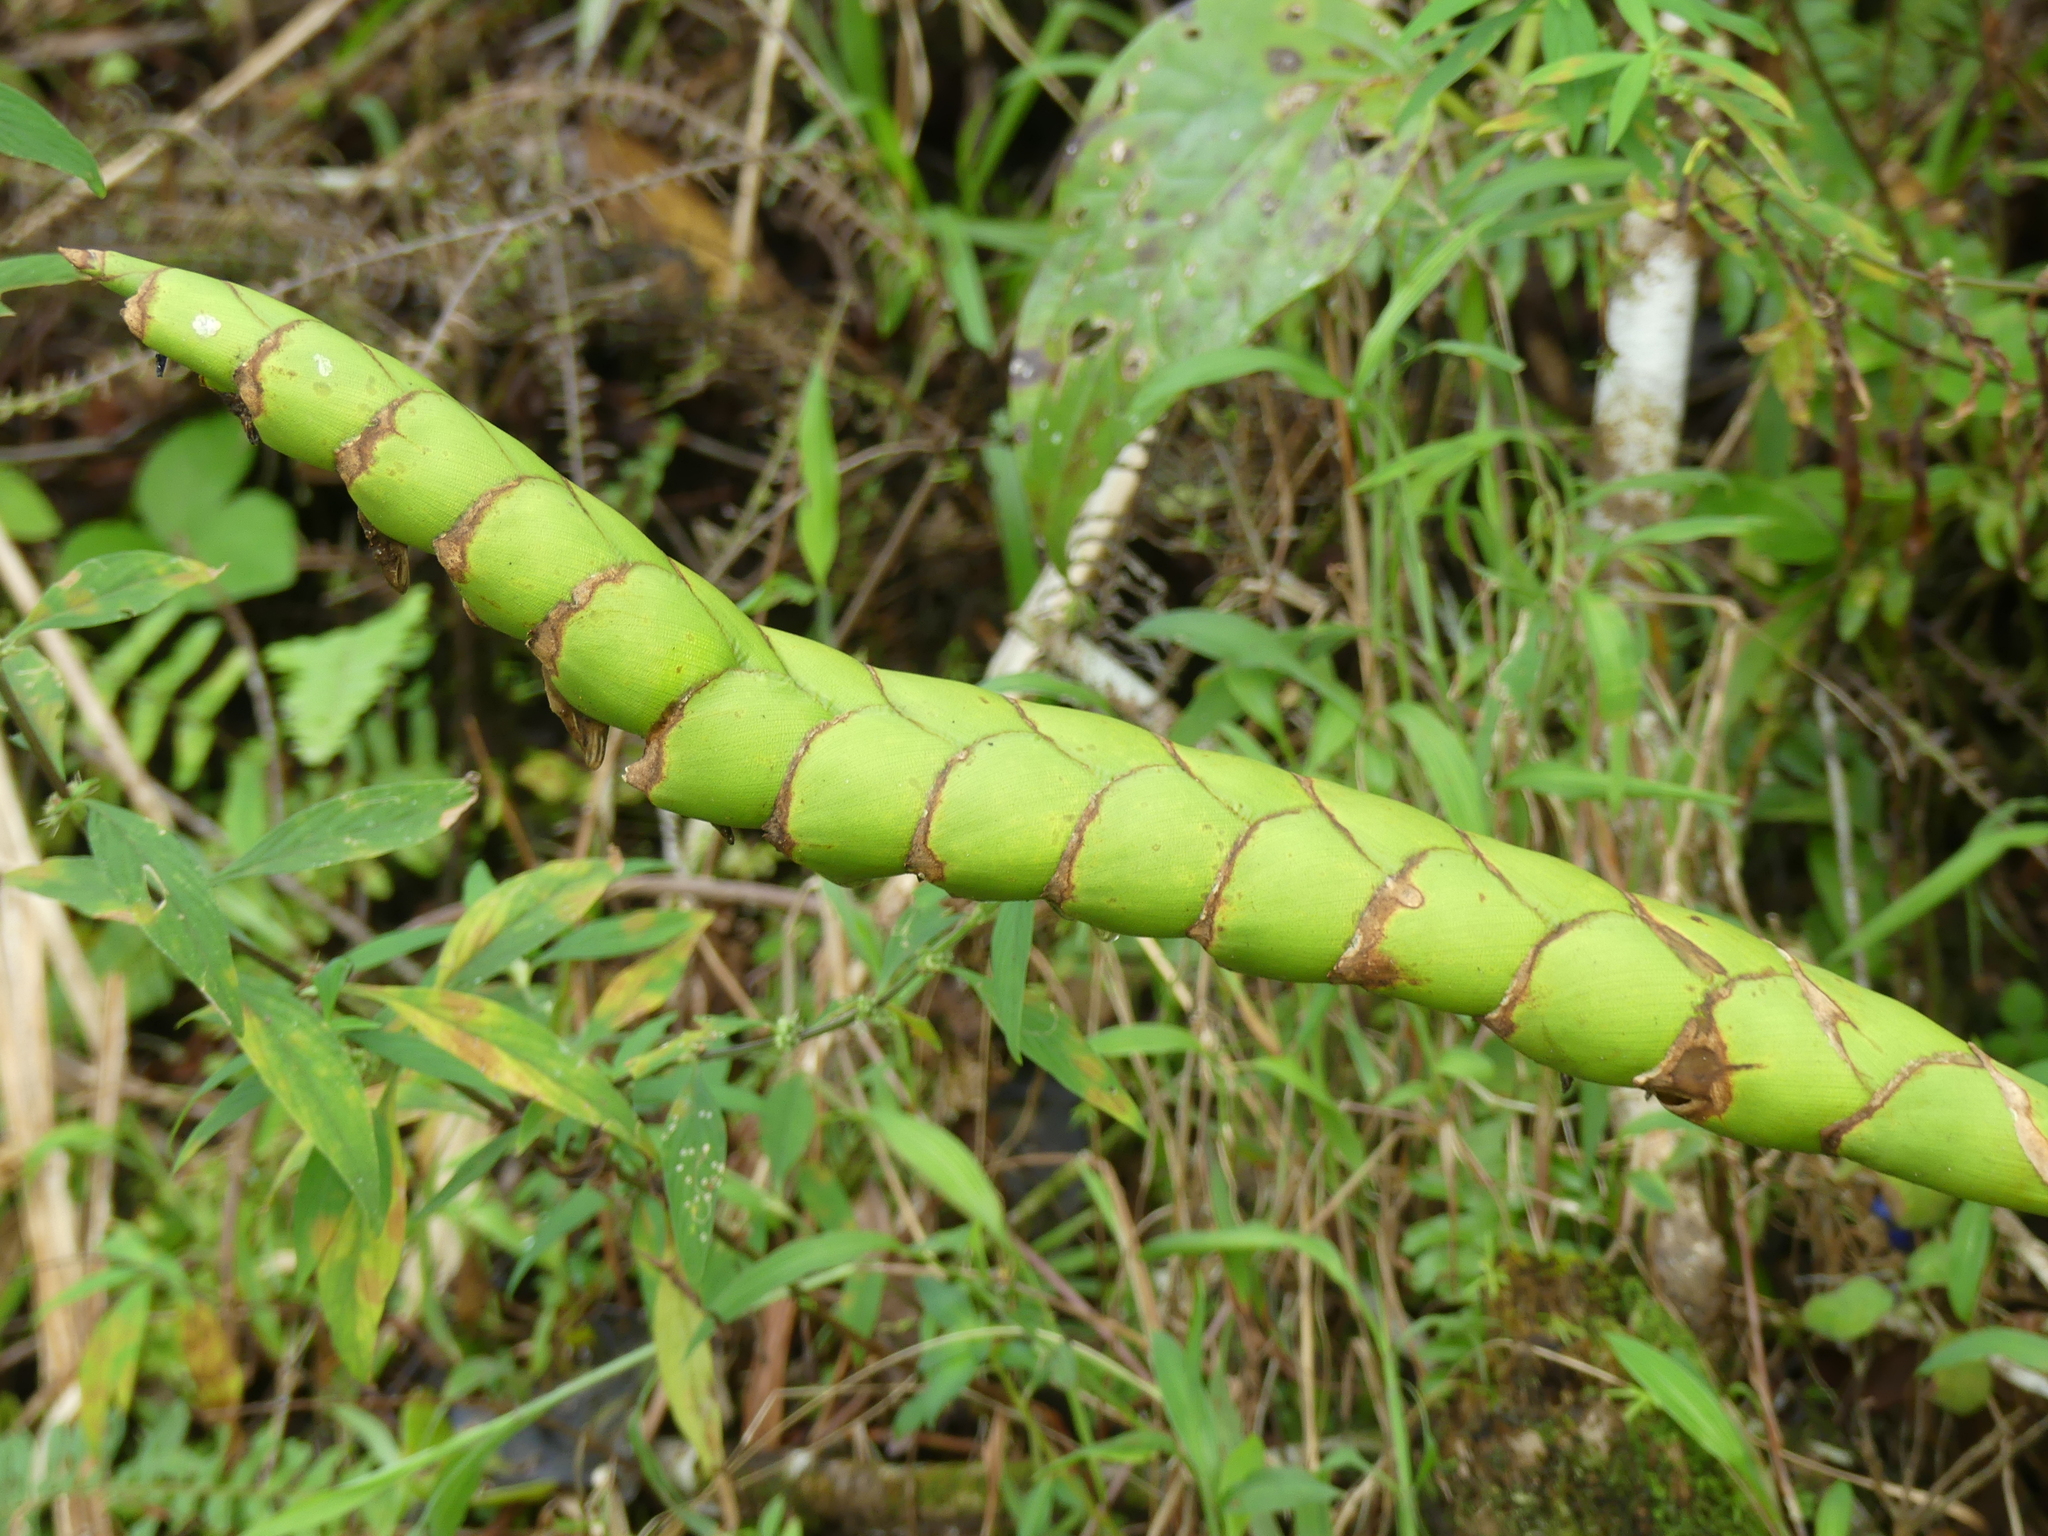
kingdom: Plantae
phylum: Tracheophyta
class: Liliopsida
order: Poales
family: Bromeliaceae
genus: Werauhia
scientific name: Werauhia gladioliflora
